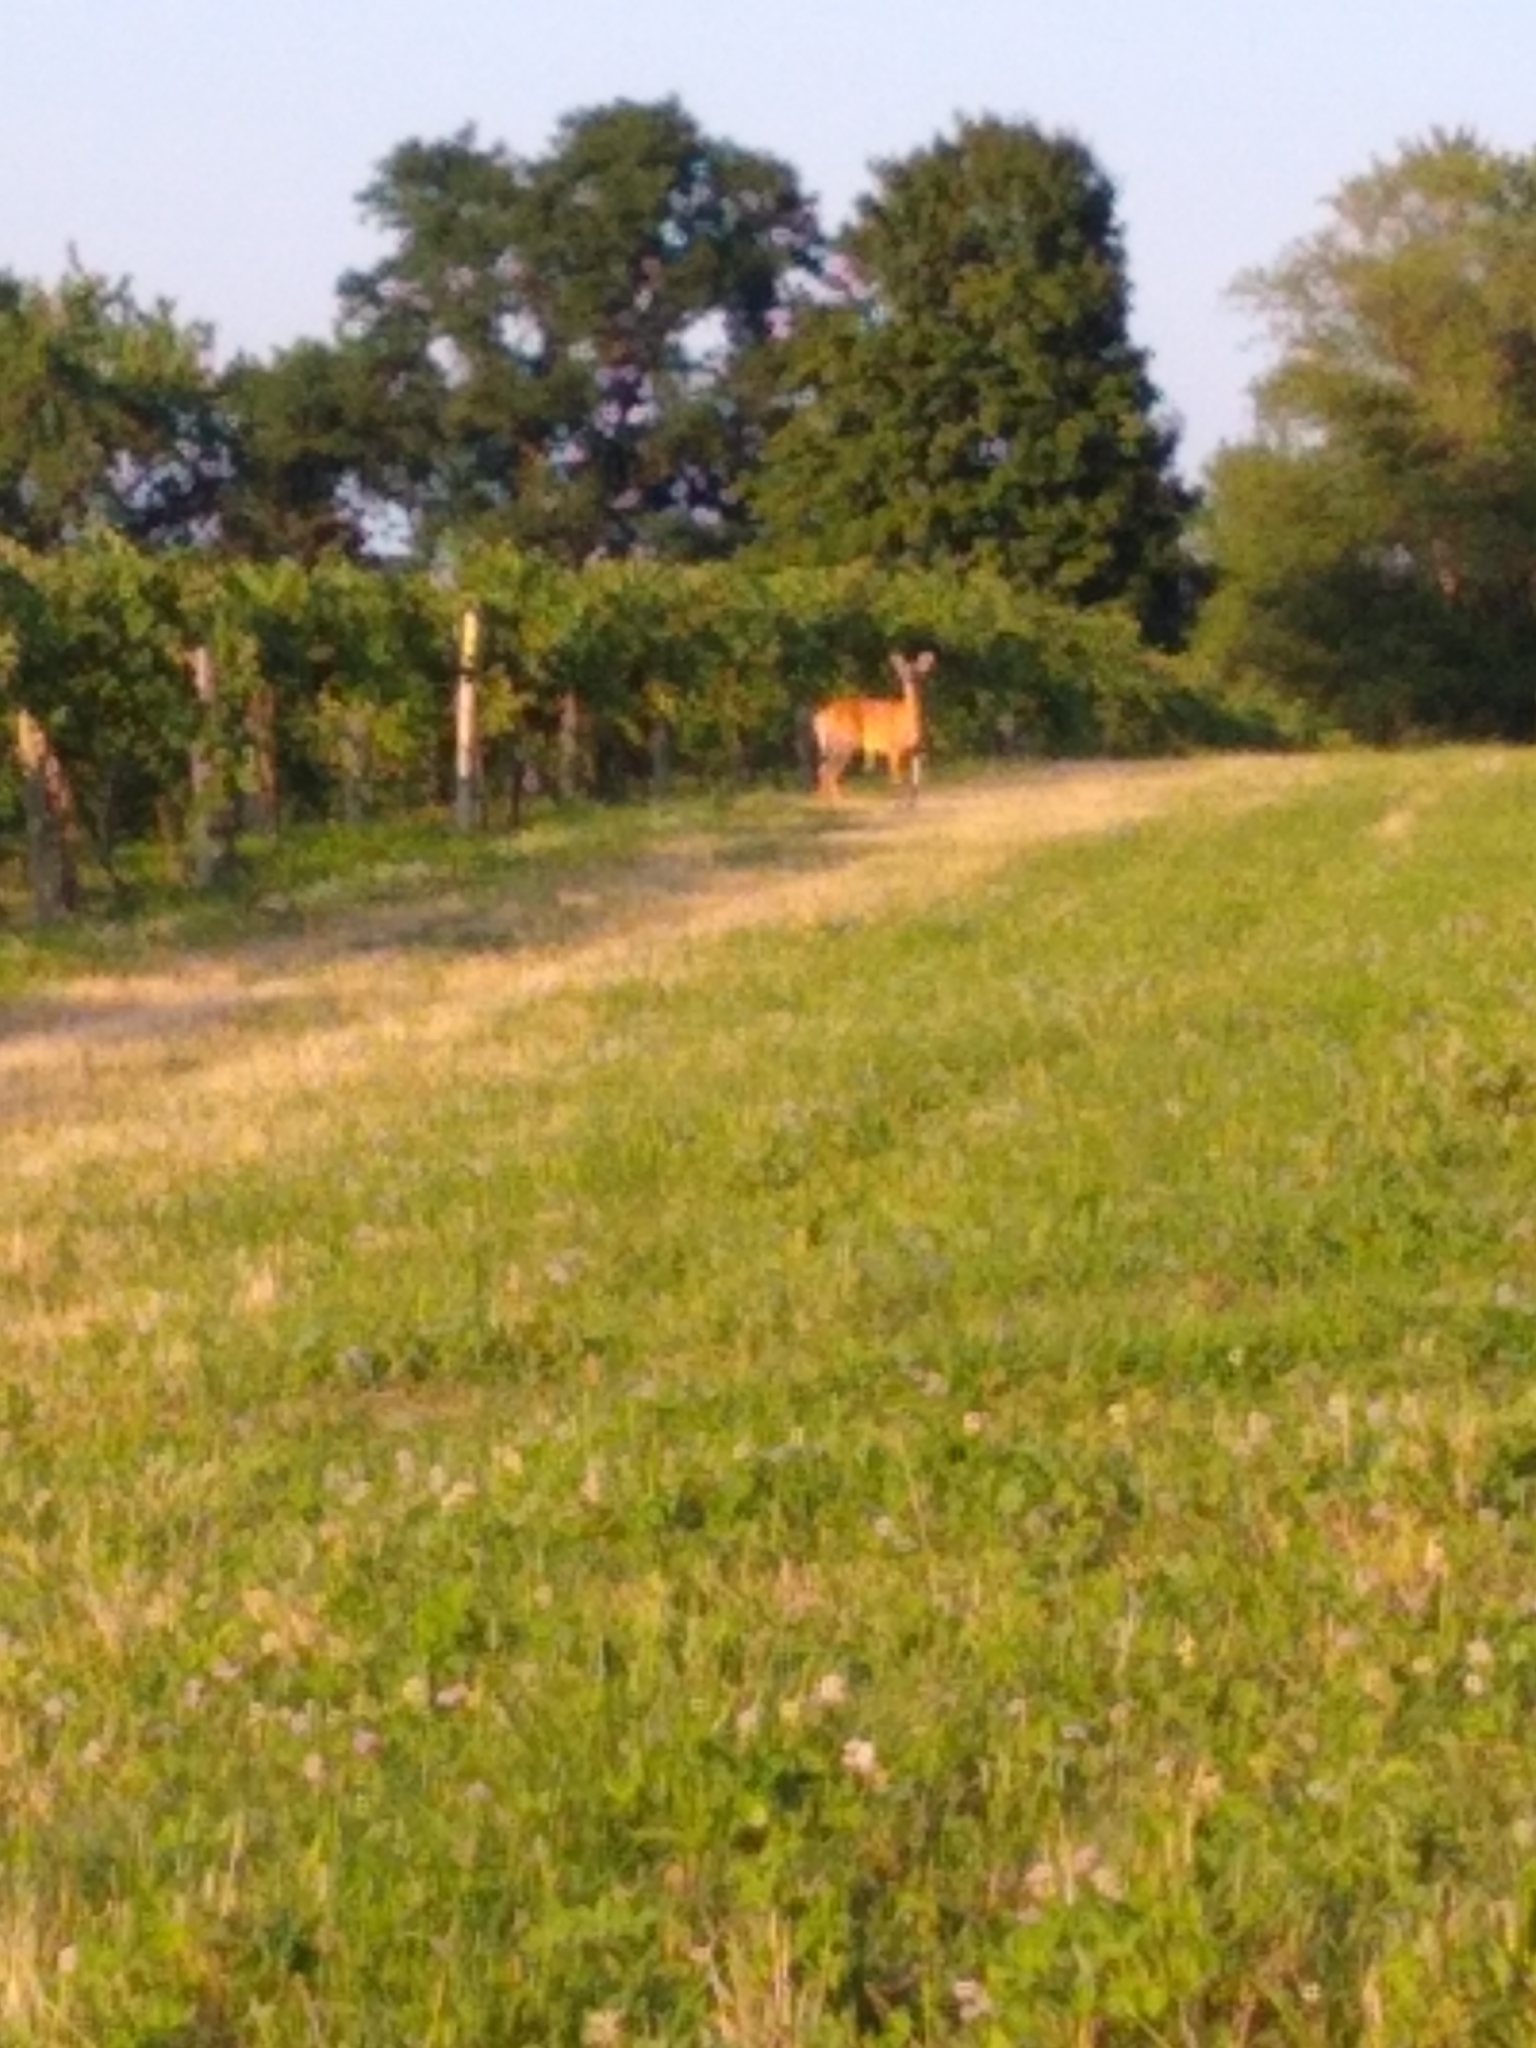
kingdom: Animalia
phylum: Chordata
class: Mammalia
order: Artiodactyla
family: Cervidae
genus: Odocoileus
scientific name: Odocoileus virginianus
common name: White-tailed deer
